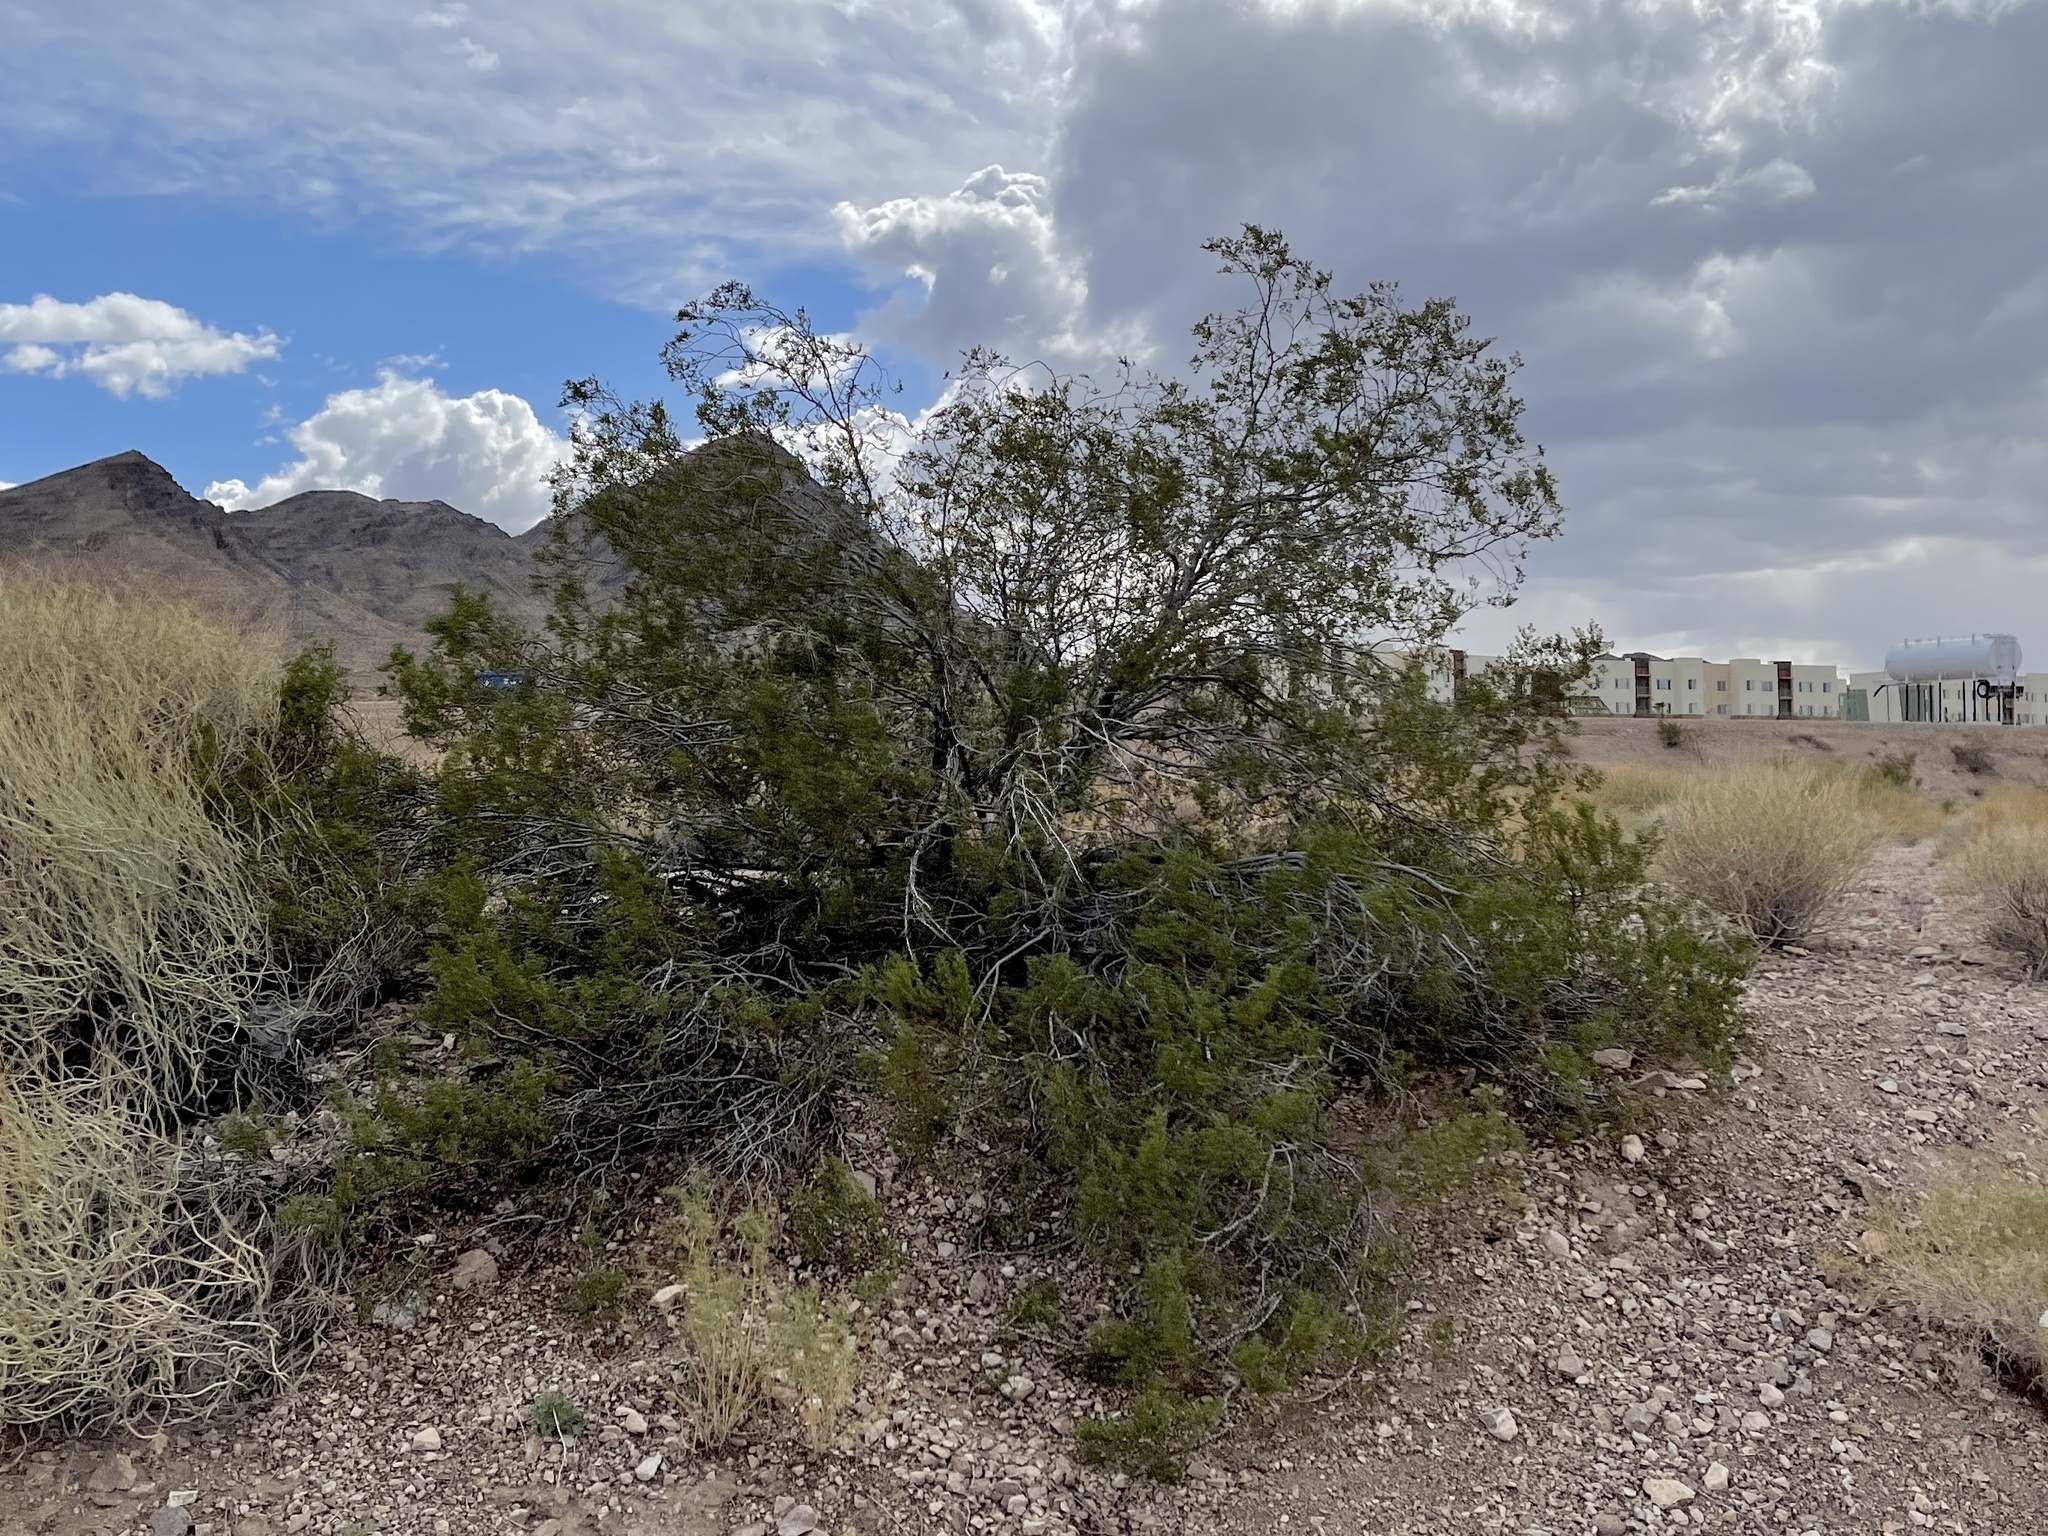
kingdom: Plantae
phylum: Tracheophyta
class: Magnoliopsida
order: Zygophyllales
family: Zygophyllaceae
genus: Larrea
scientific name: Larrea tridentata
